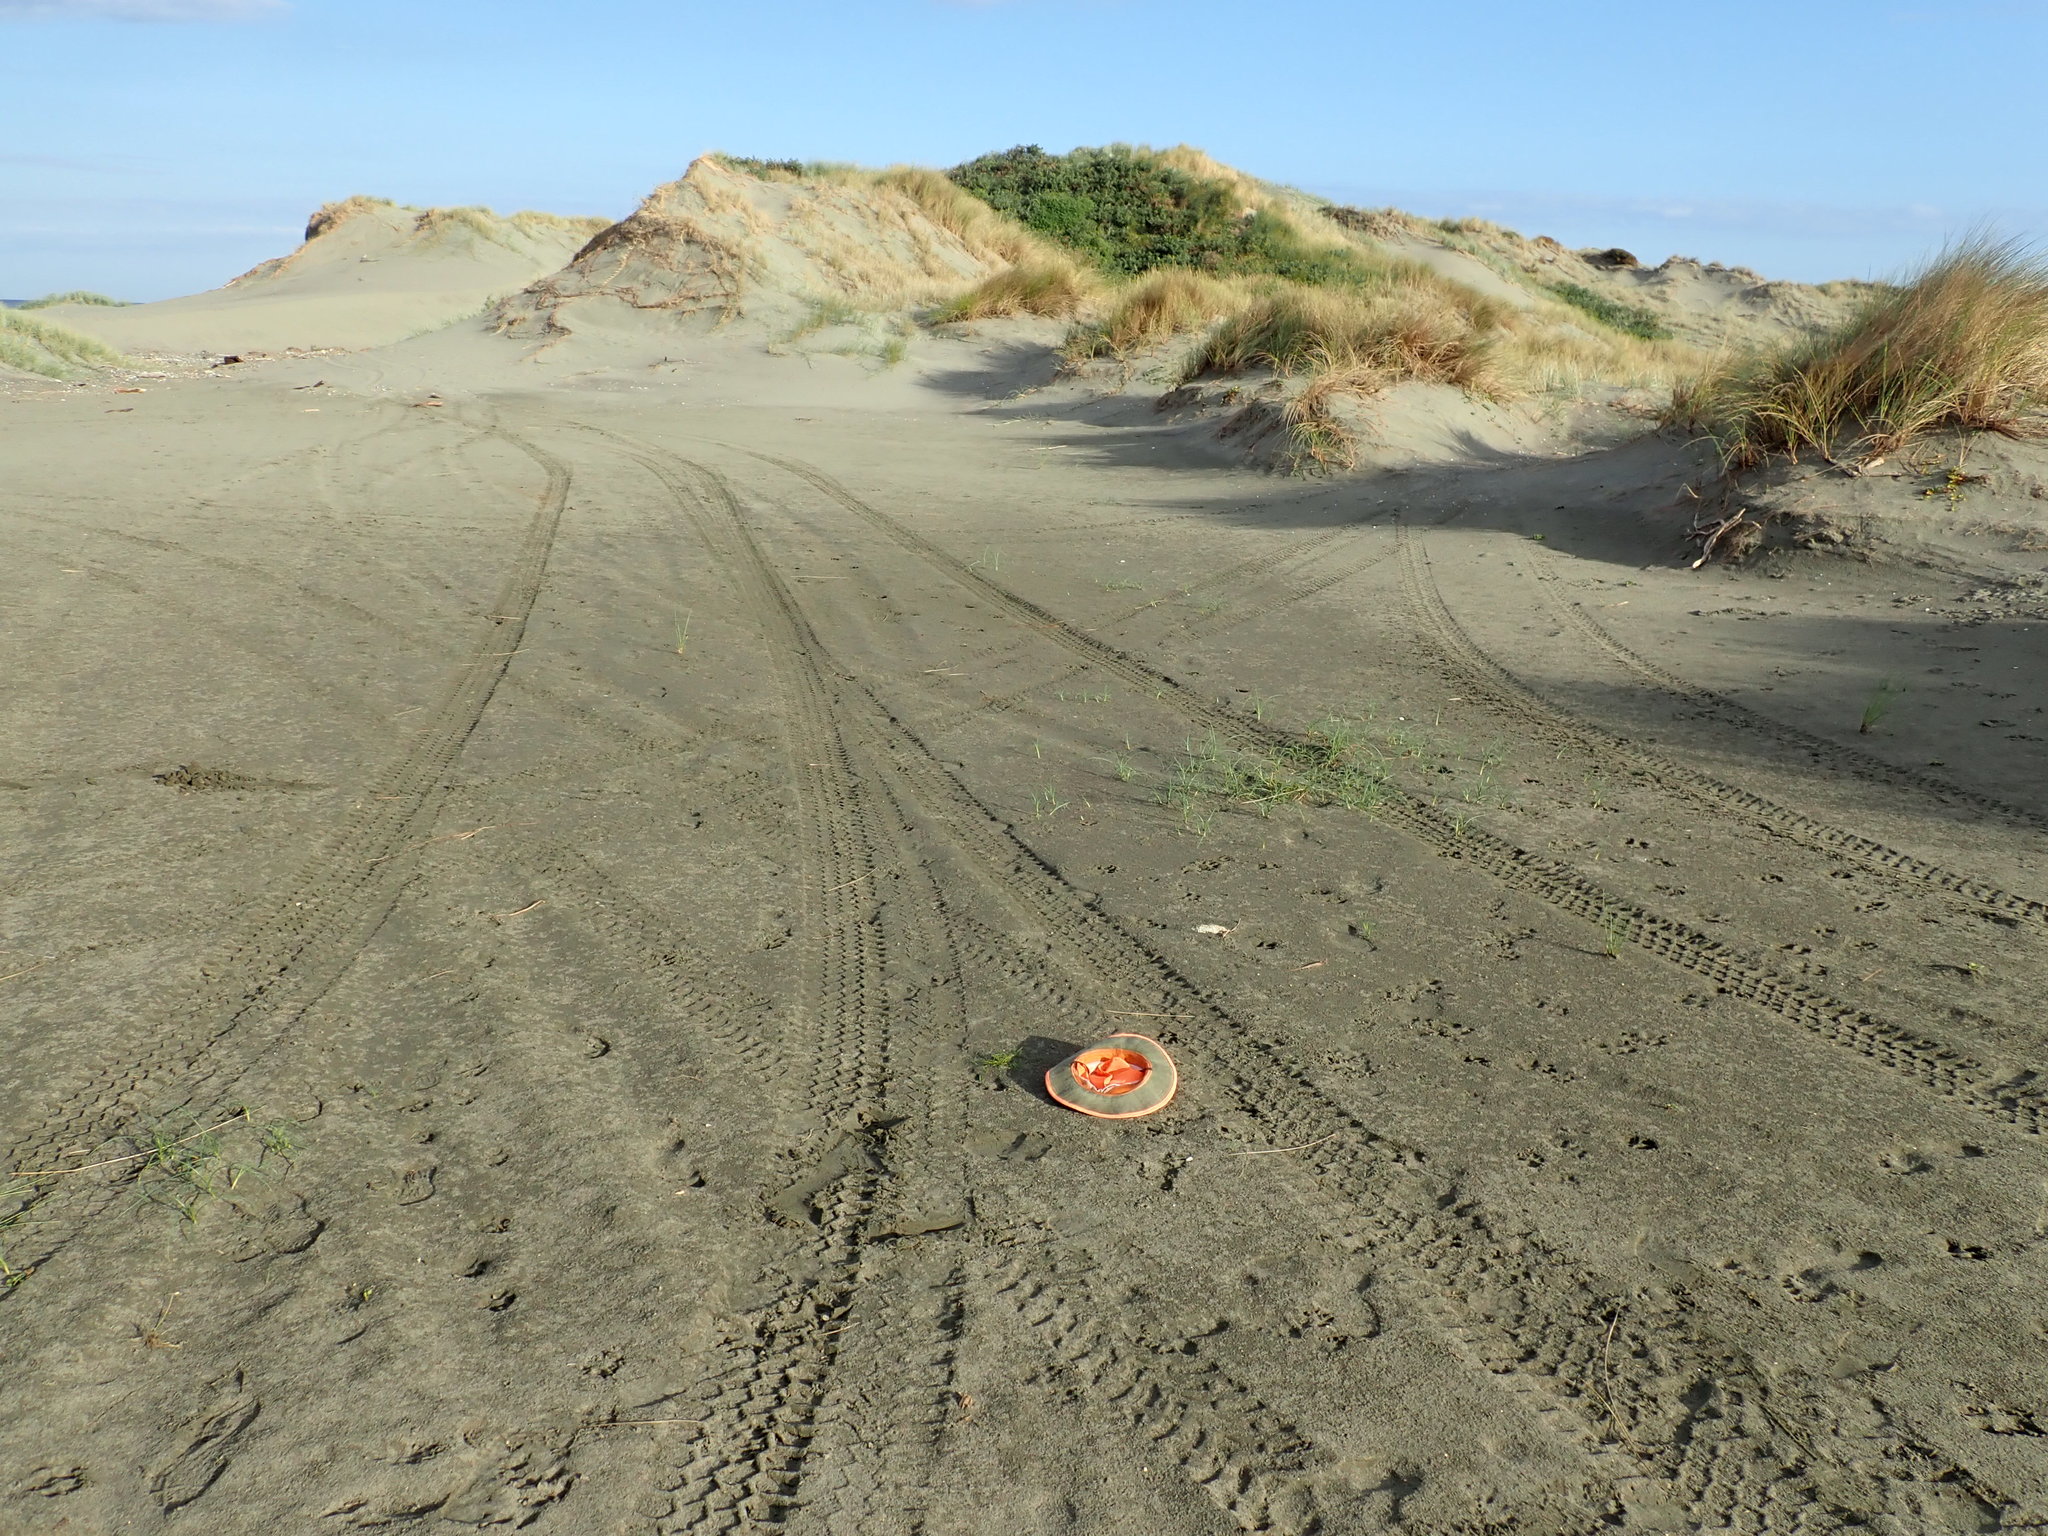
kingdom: Animalia
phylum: Arthropoda
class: Arachnida
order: Araneae
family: Lycosidae
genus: Anoteropsis
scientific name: Anoteropsis litoralis
